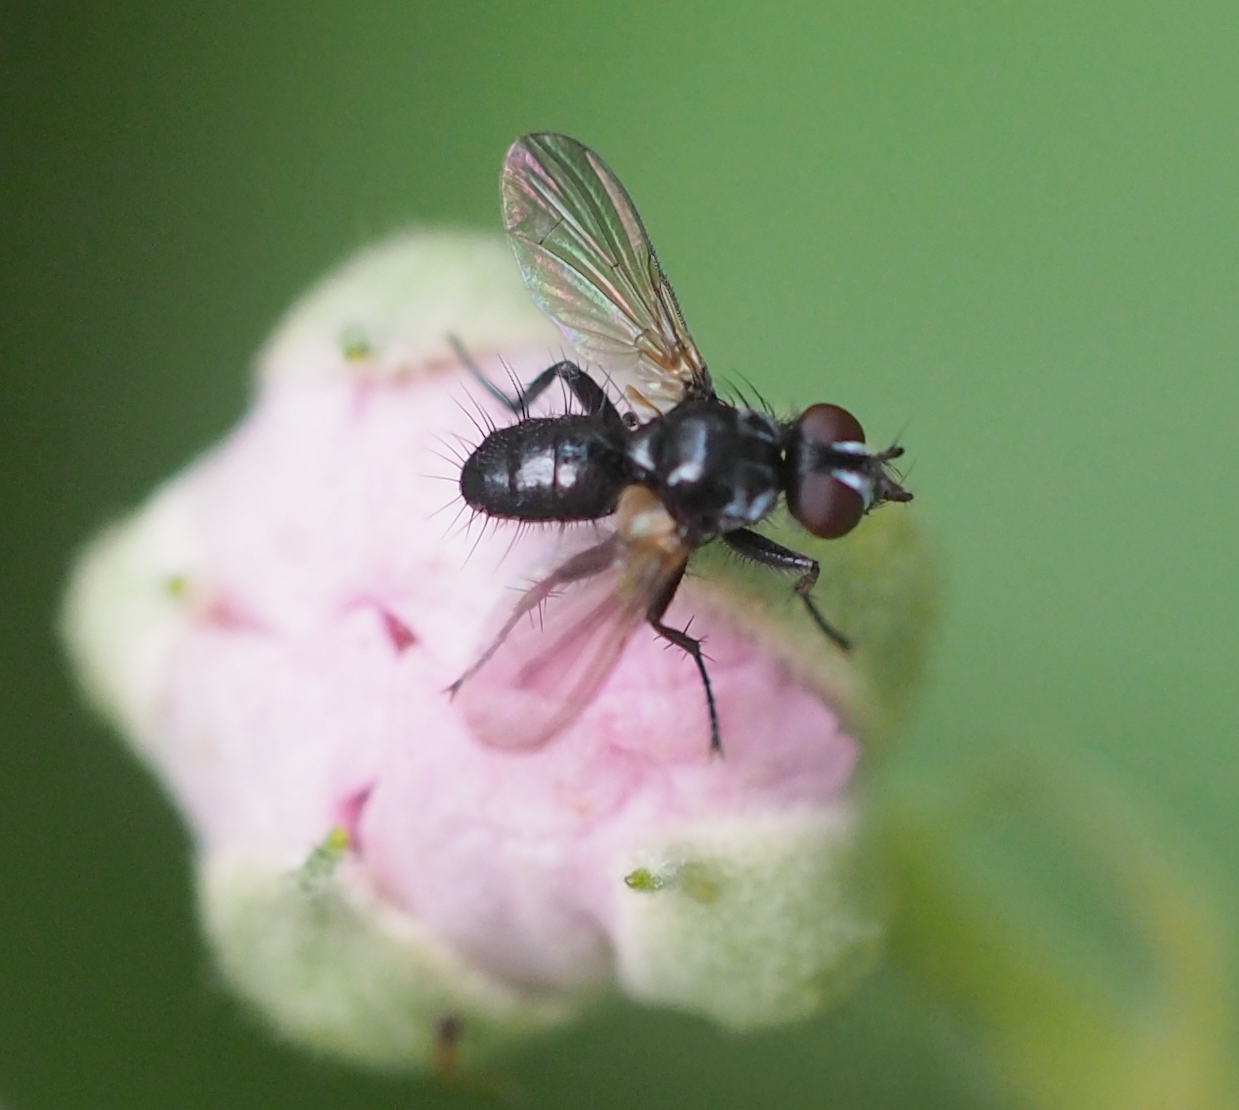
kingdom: Animalia
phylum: Arthropoda
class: Insecta
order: Diptera
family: Tachinidae
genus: Phania
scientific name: Phania funesta
